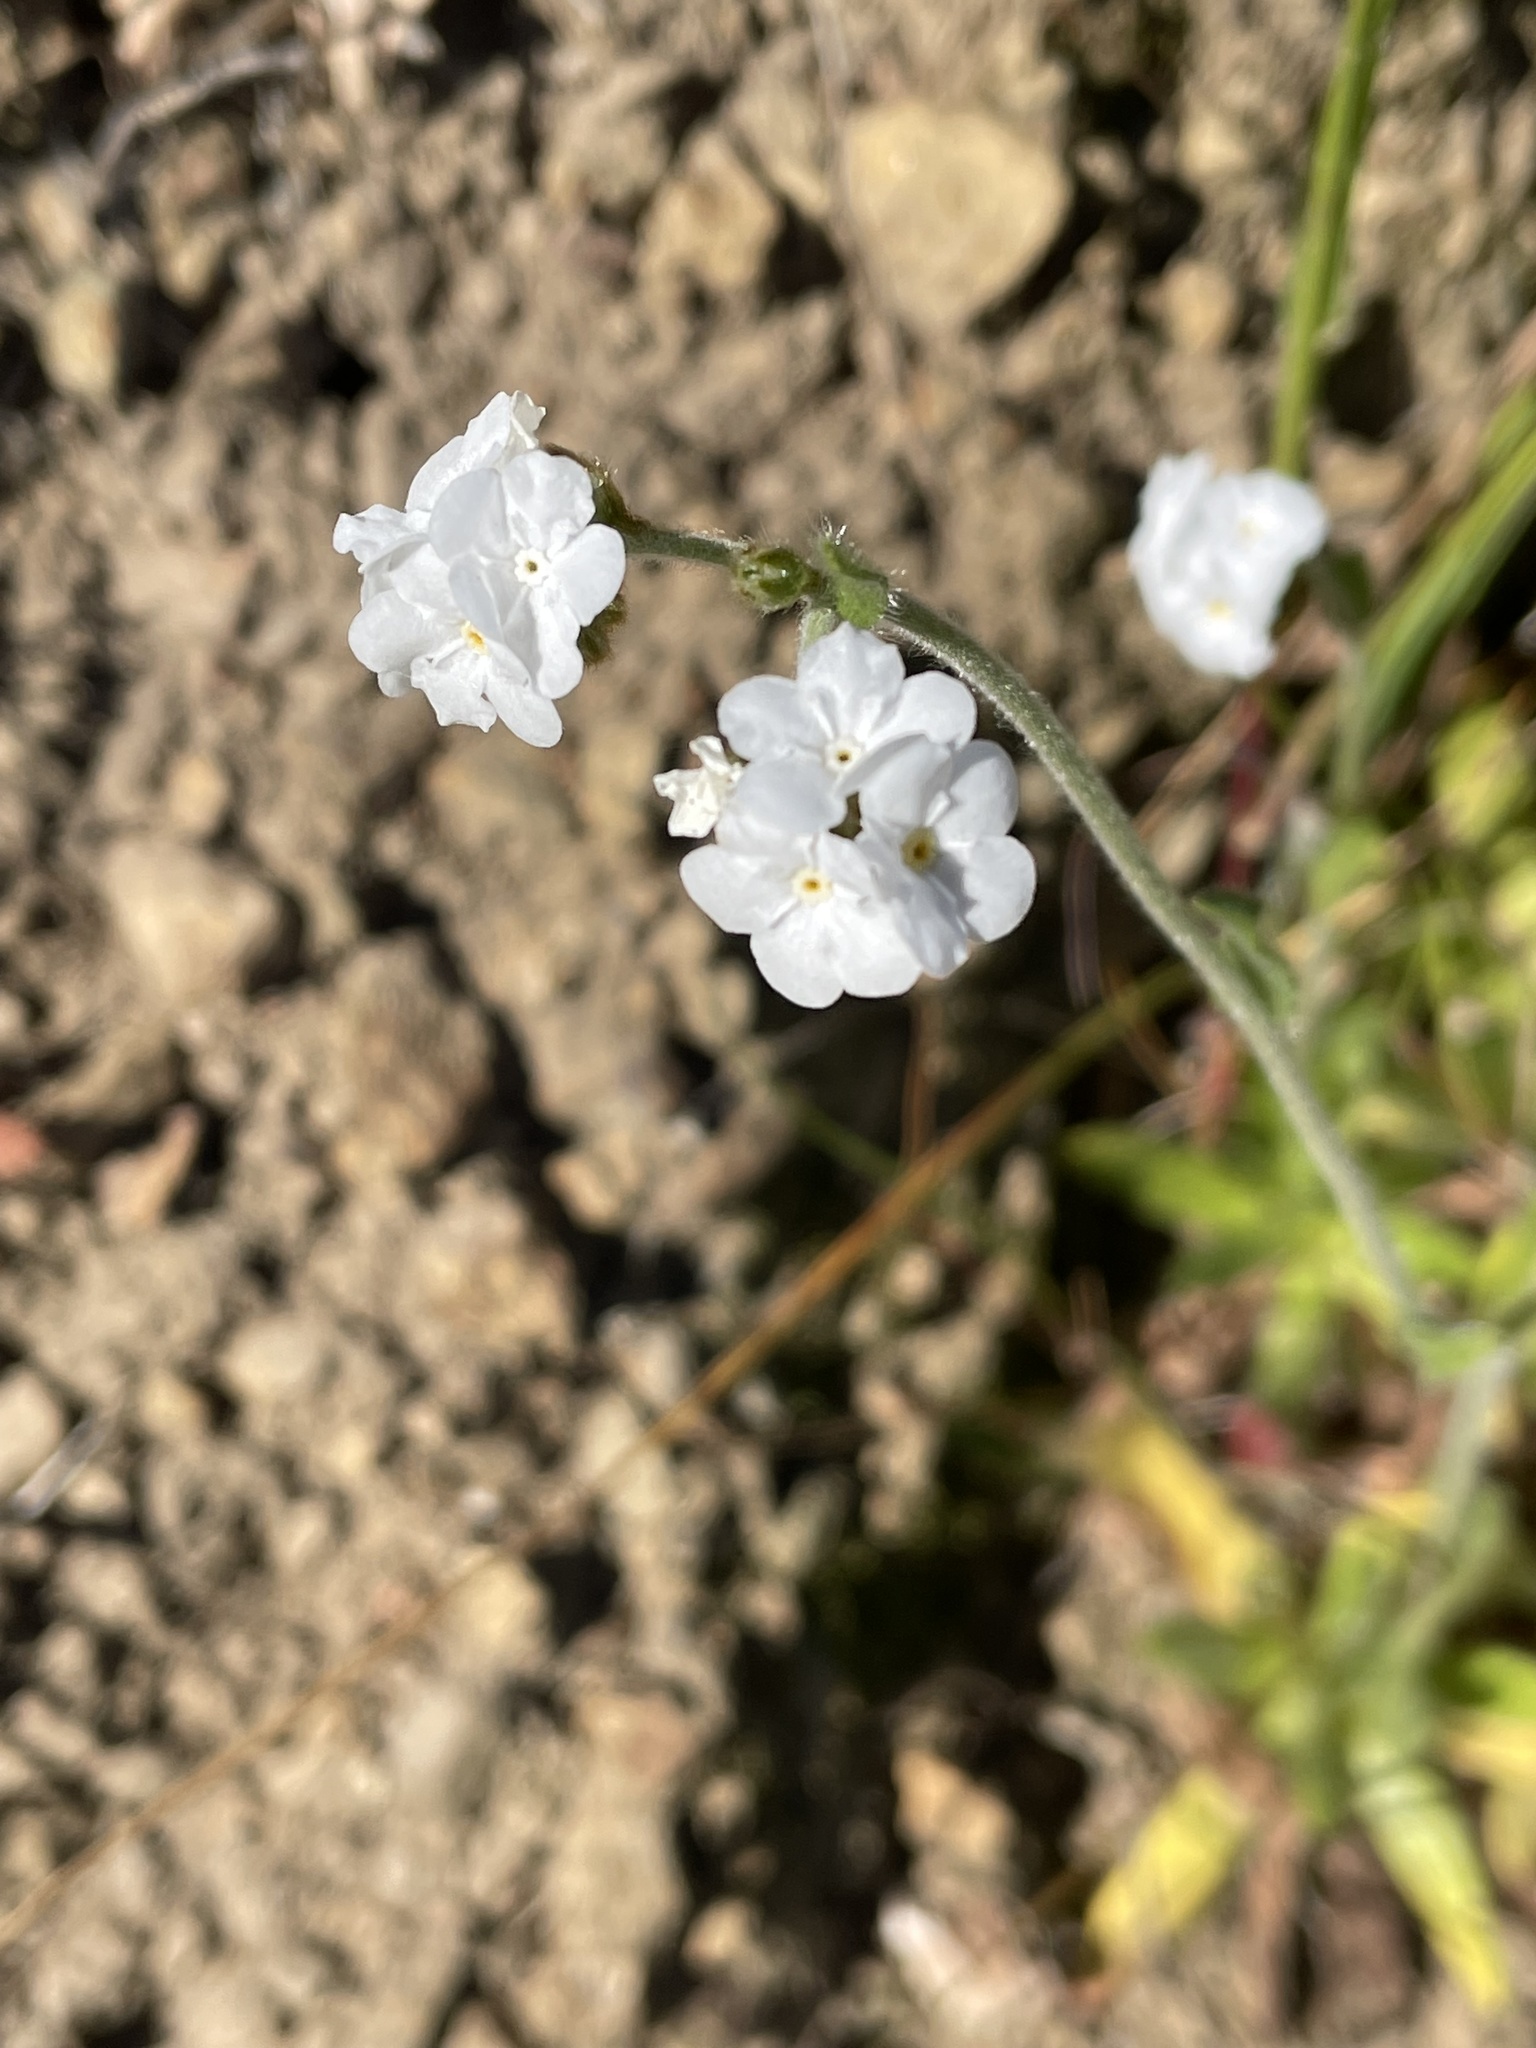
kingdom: Plantae
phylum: Tracheophyta
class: Magnoliopsida
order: Boraginales
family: Boraginaceae
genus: Plagiobothrys
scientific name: Plagiobothrys nothofulvus
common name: Popcorn-flower
